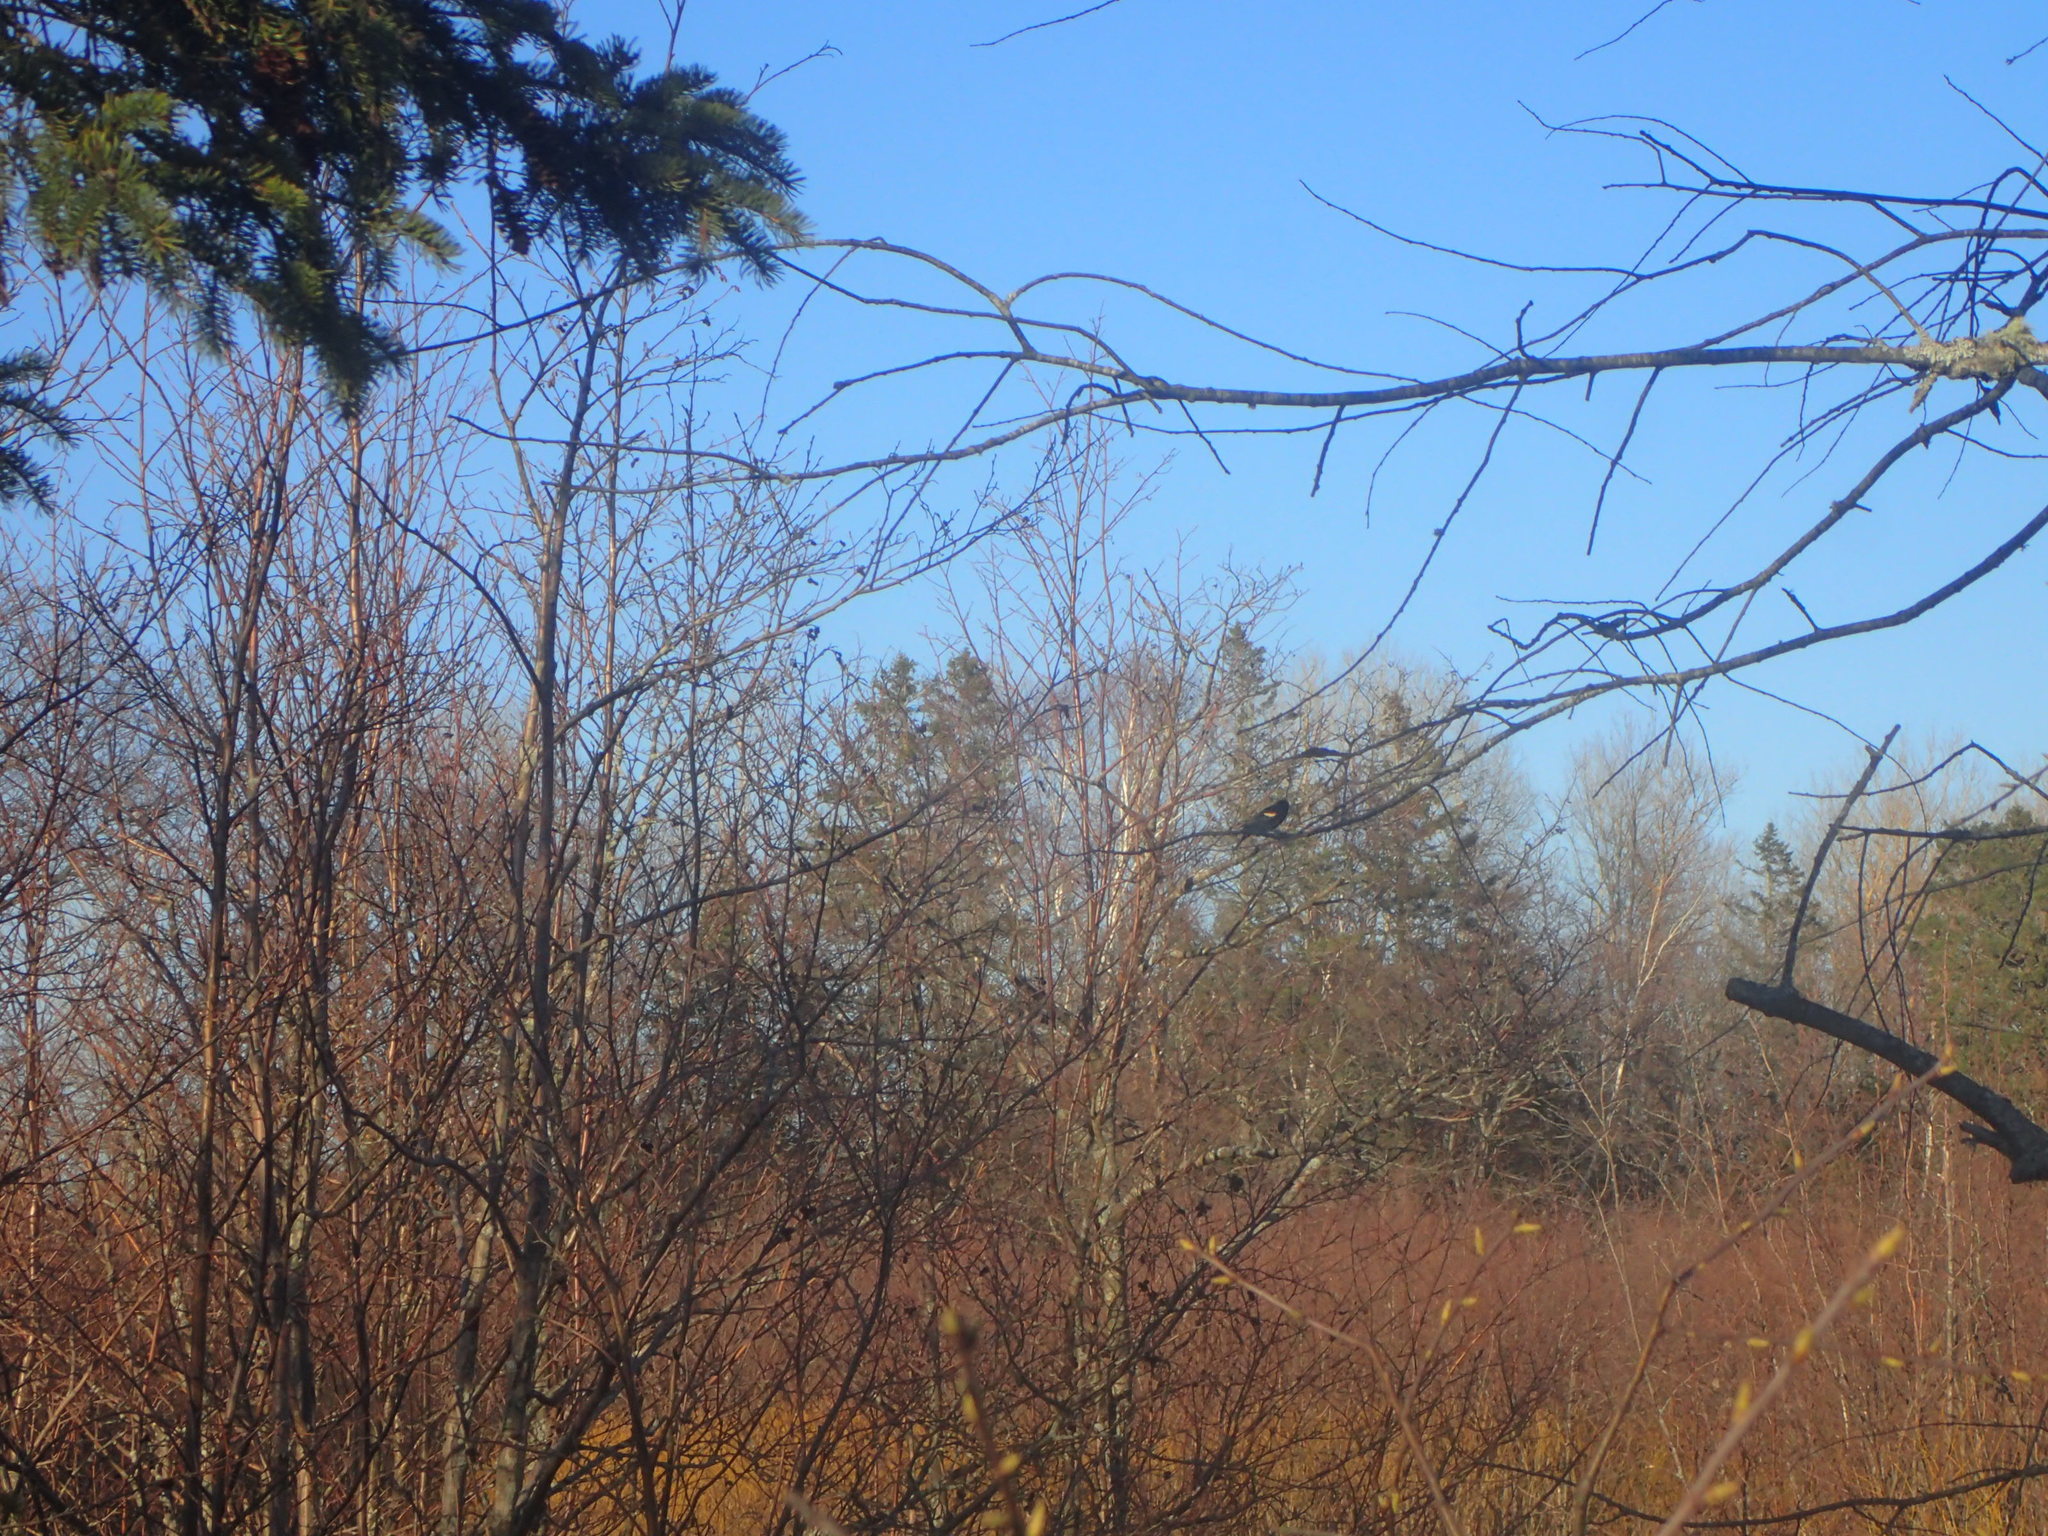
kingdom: Animalia
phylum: Chordata
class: Aves
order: Passeriformes
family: Icteridae
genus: Agelaius
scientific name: Agelaius phoeniceus
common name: Red-winged blackbird
